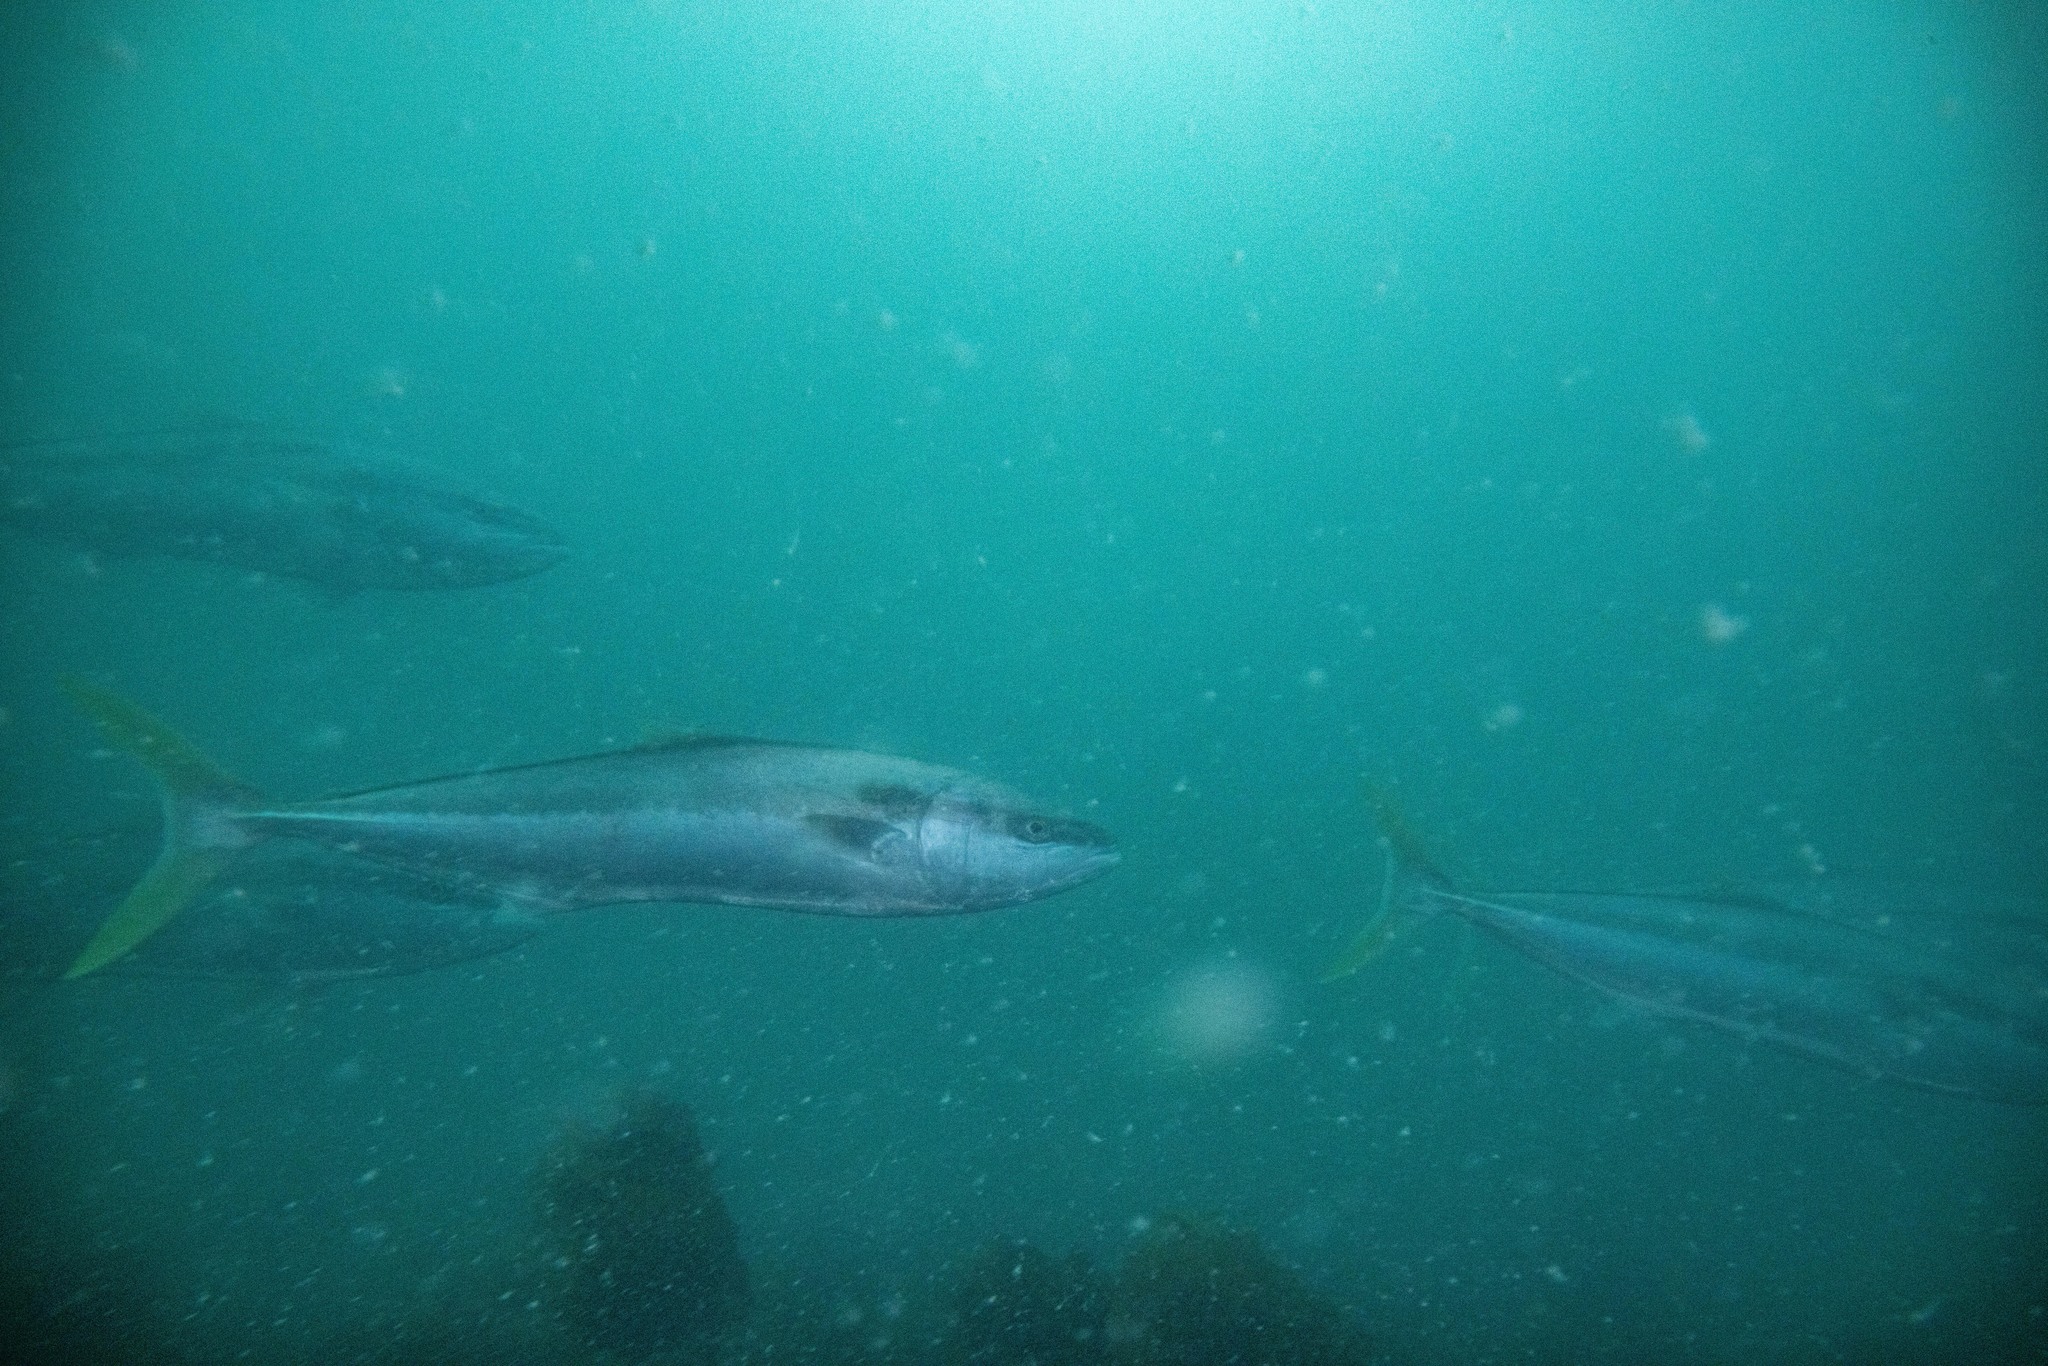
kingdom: Animalia
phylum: Chordata
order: Perciformes
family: Carangidae
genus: Seriola
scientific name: Seriola lalandi
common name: Yellowtail kingfish
